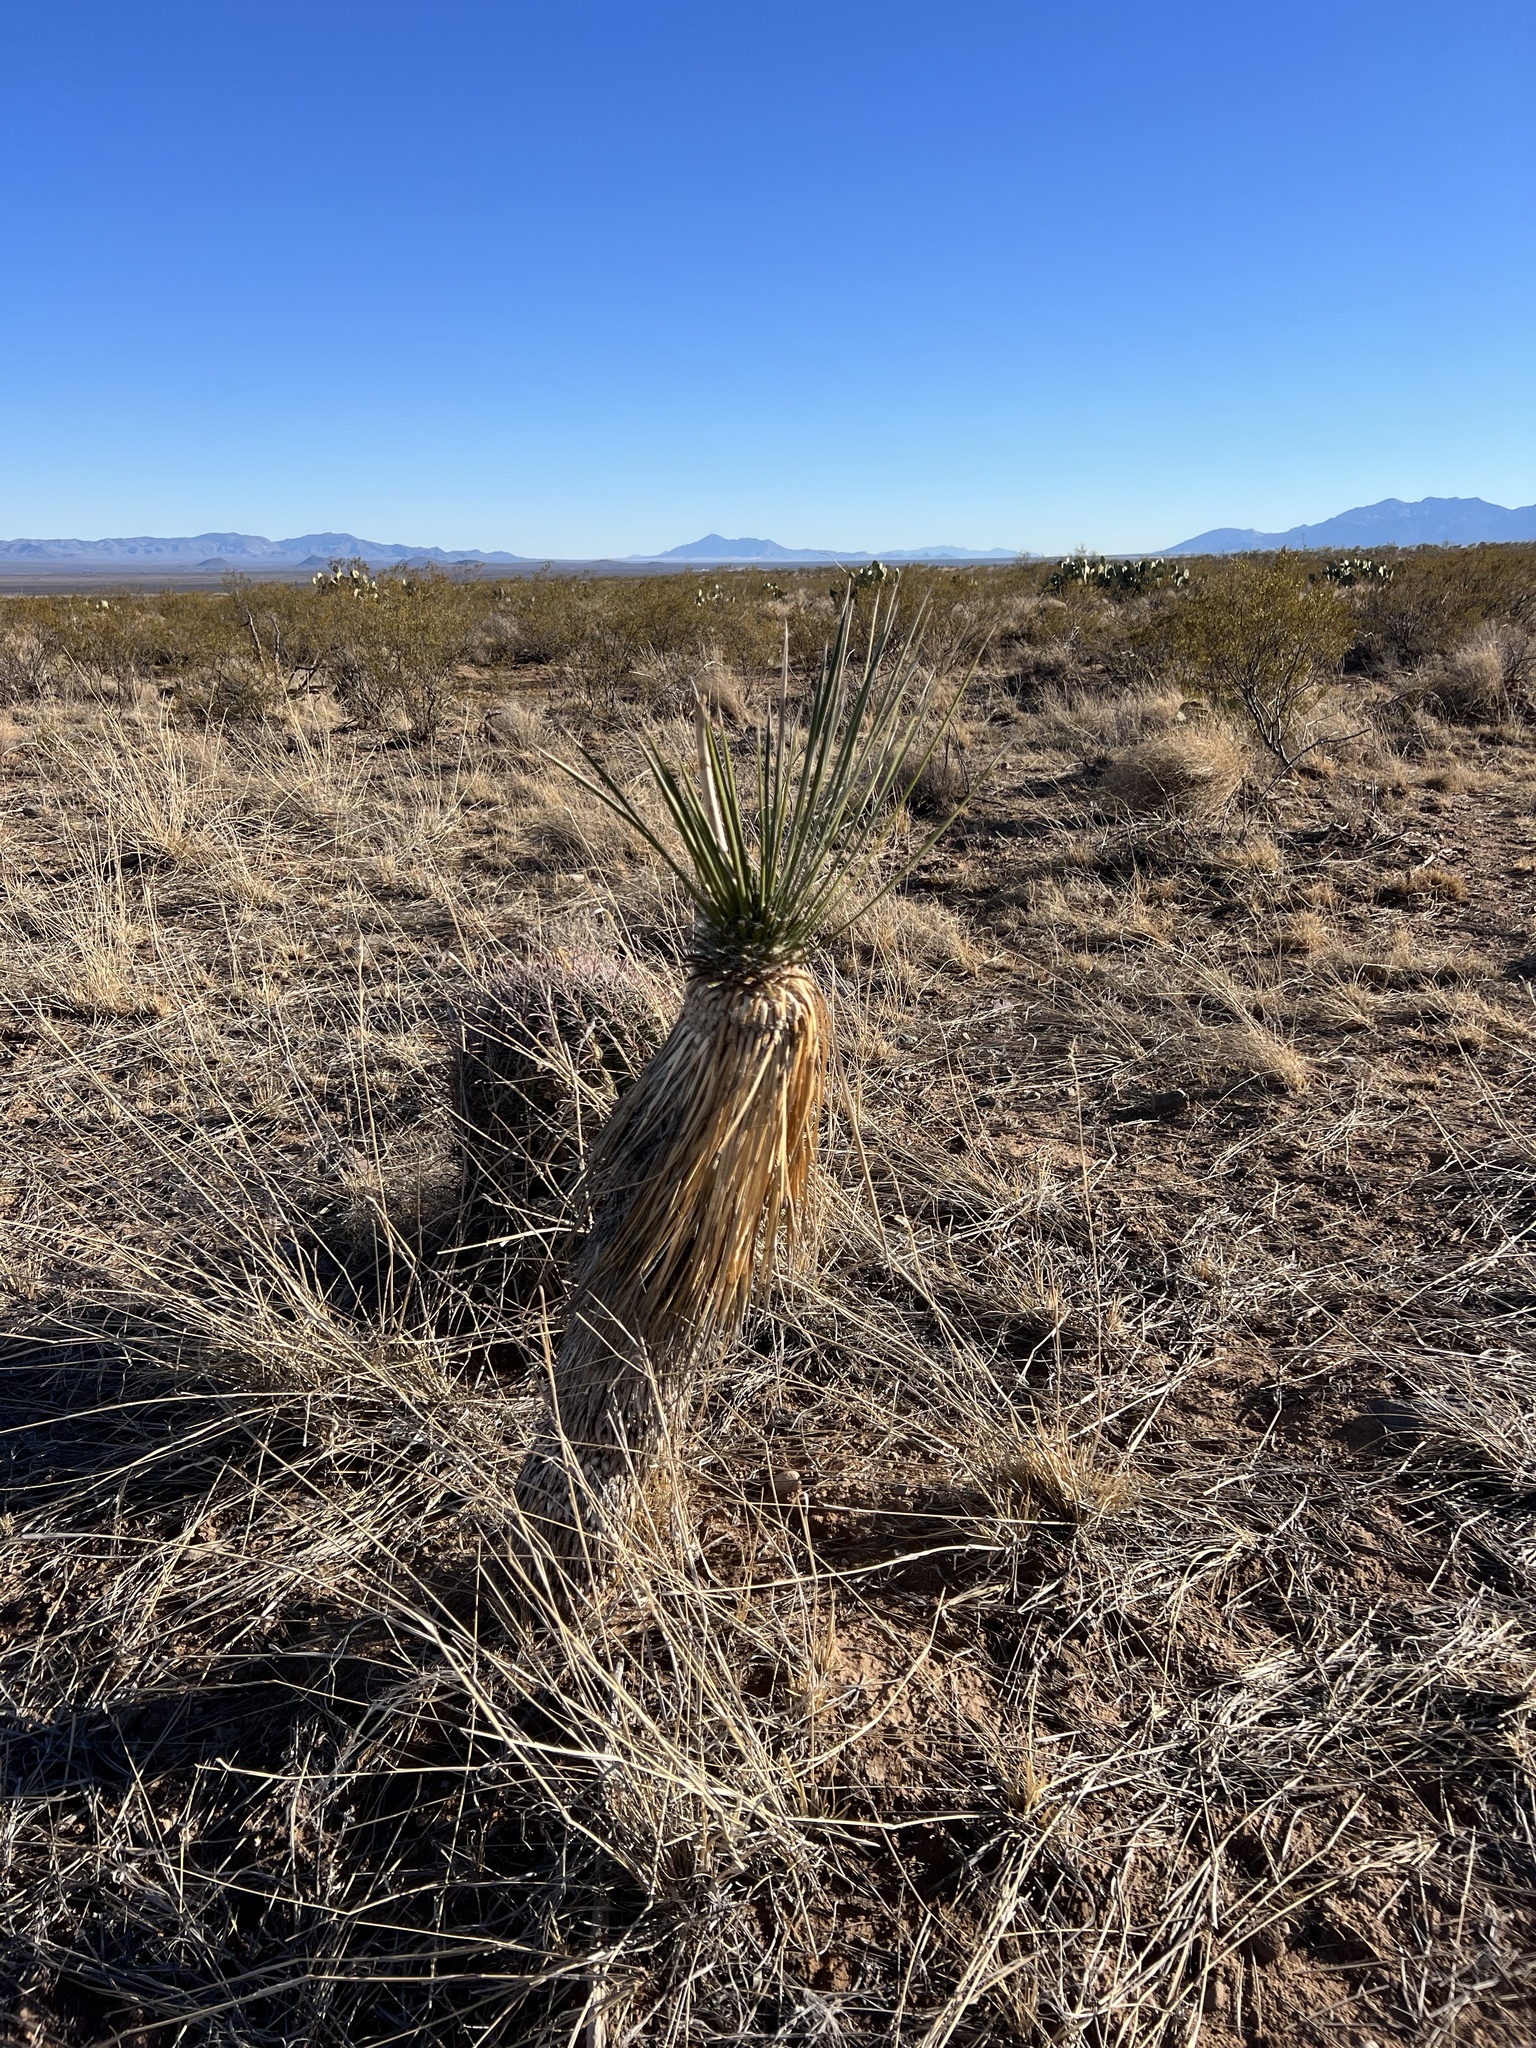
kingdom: Plantae
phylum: Tracheophyta
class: Liliopsida
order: Asparagales
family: Asparagaceae
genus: Yucca
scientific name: Yucca elata
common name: Palmella
